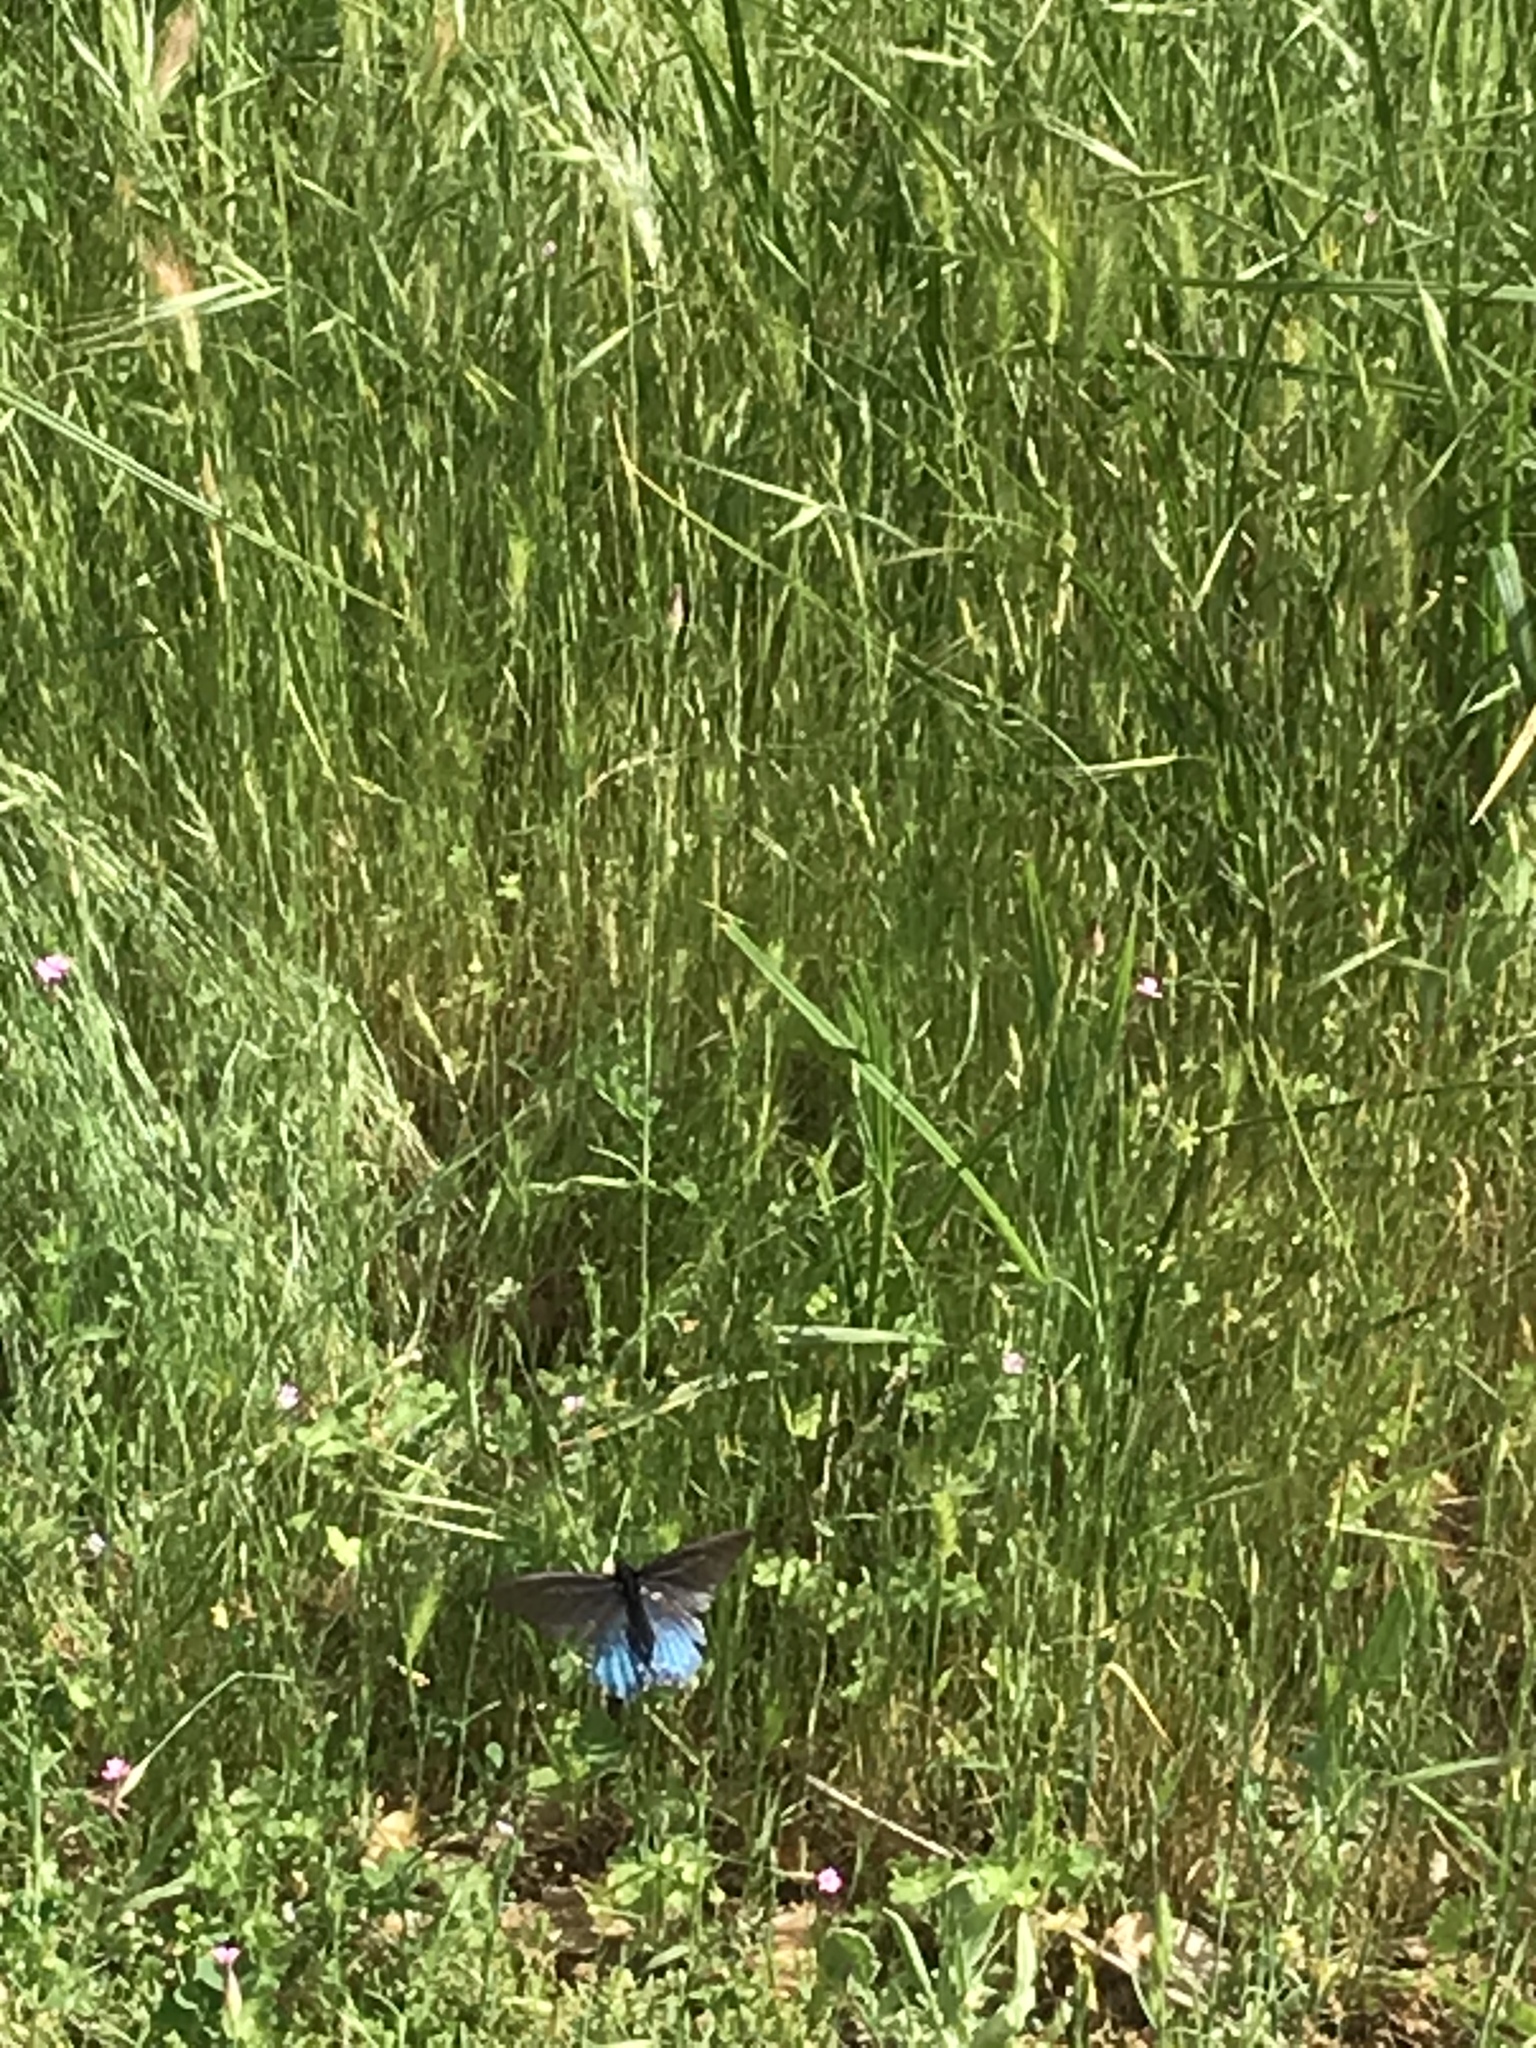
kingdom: Animalia
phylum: Arthropoda
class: Insecta
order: Lepidoptera
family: Papilionidae
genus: Battus
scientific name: Battus philenor
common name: Pipevine swallowtail
